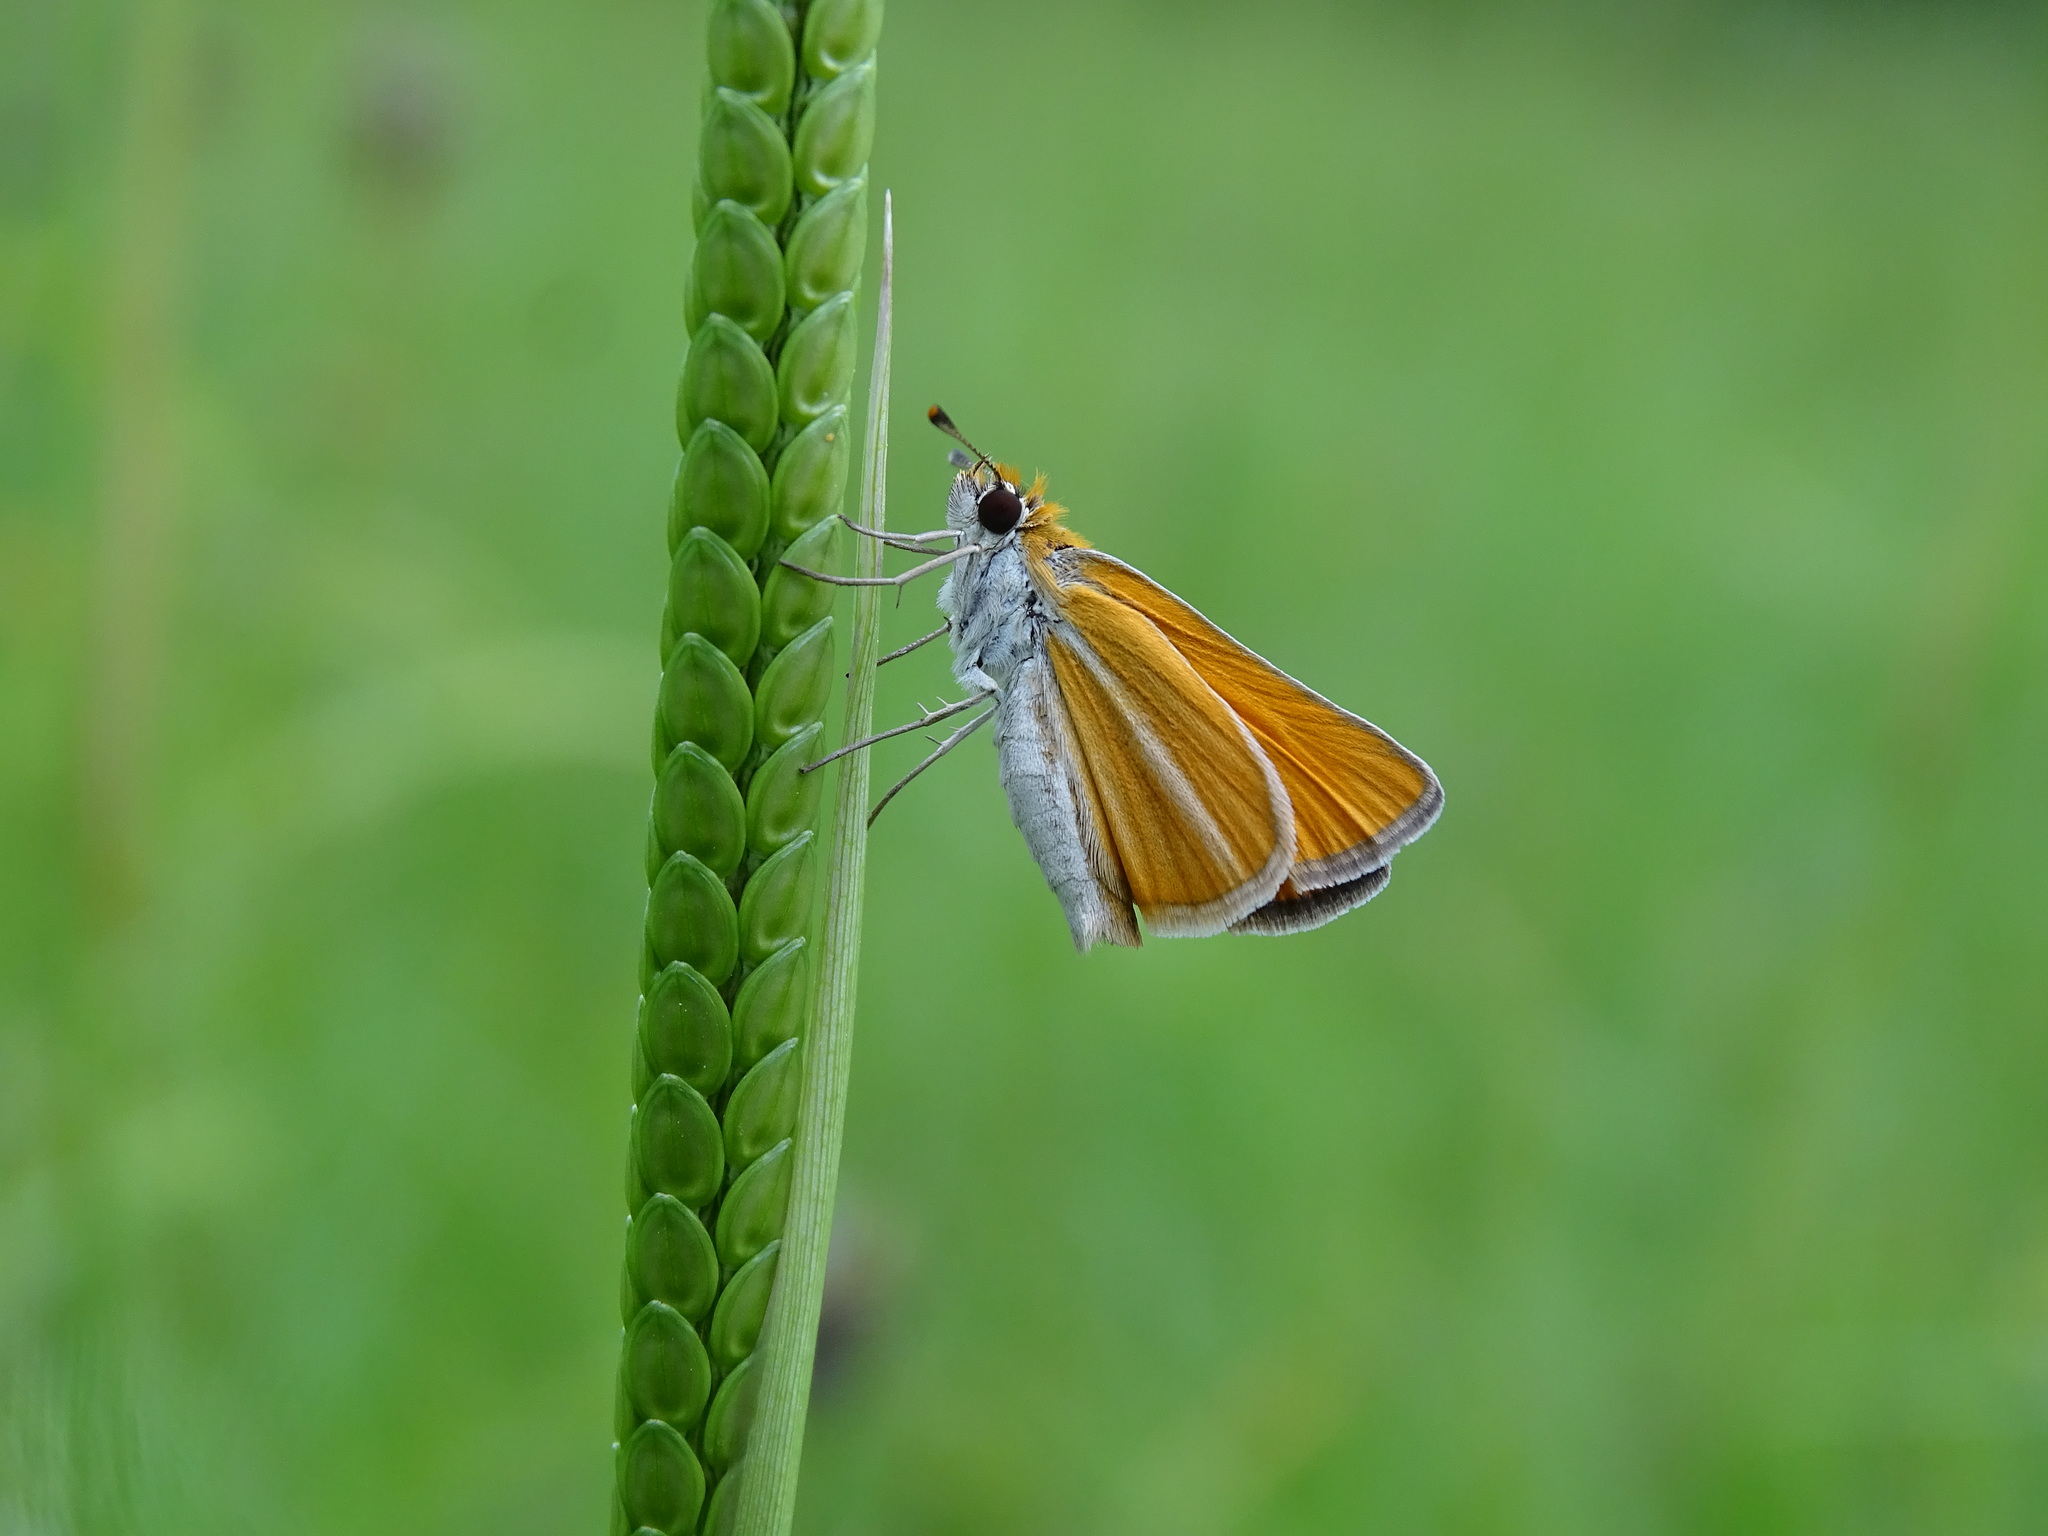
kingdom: Animalia
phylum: Arthropoda
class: Insecta
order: Lepidoptera
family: Hesperiidae
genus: Copaeodes
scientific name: Copaeodes minima
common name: Southern skipperling
